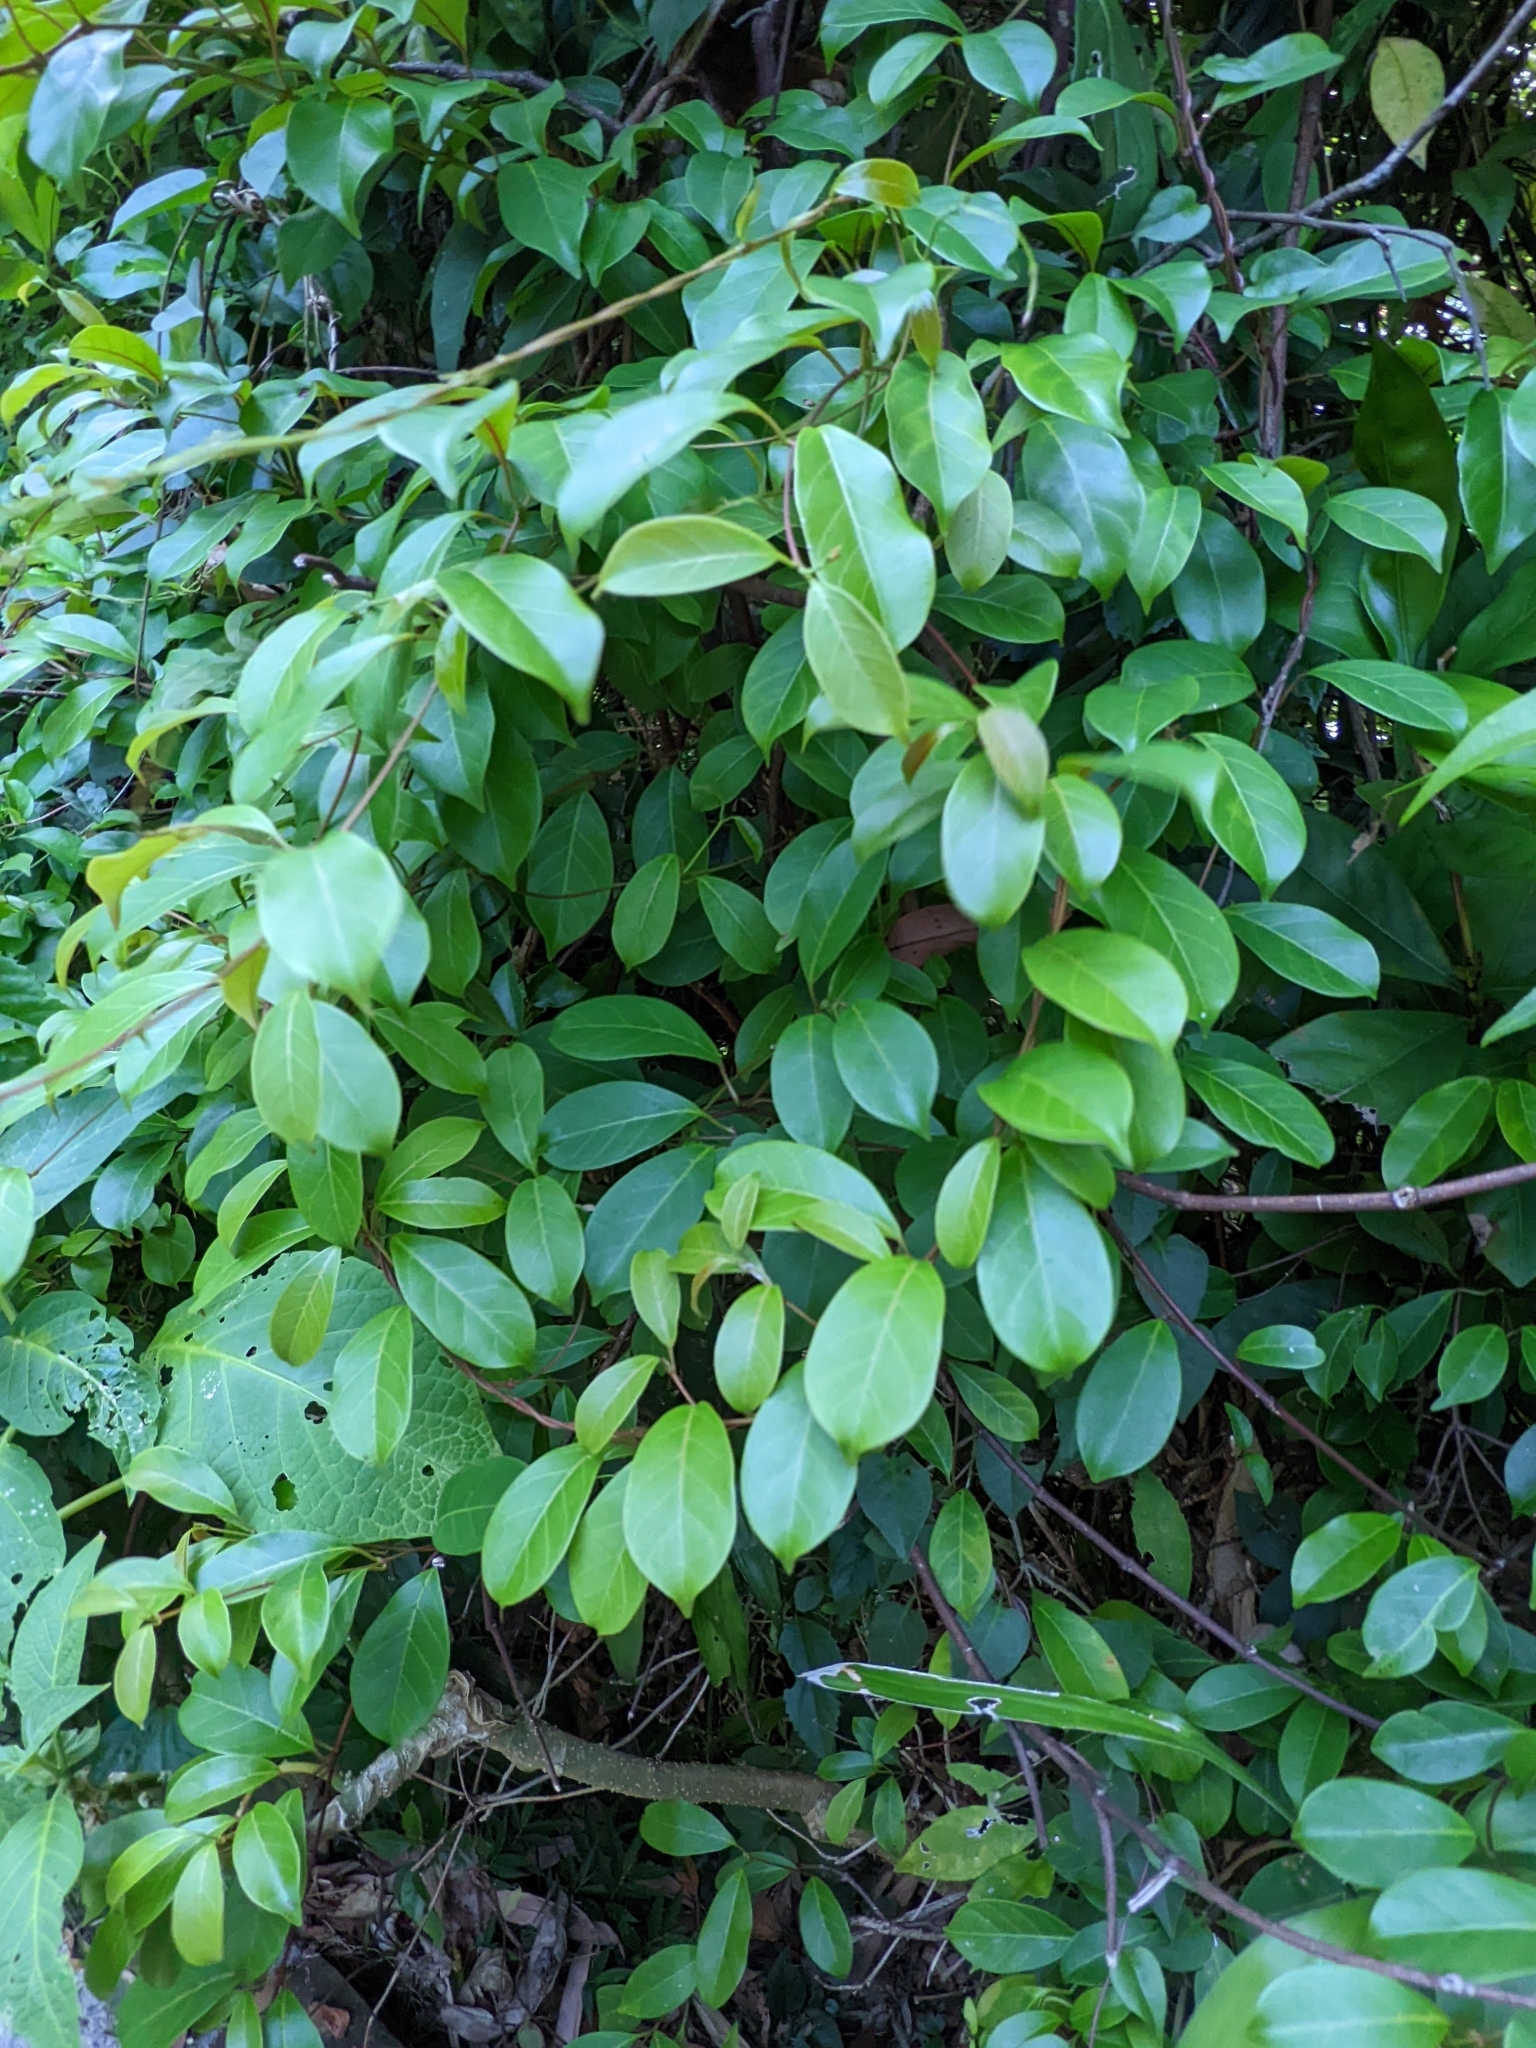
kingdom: Plantae
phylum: Tracheophyta
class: Magnoliopsida
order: Gentianales
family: Apocynaceae
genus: Urceola
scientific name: Urceola rosea
